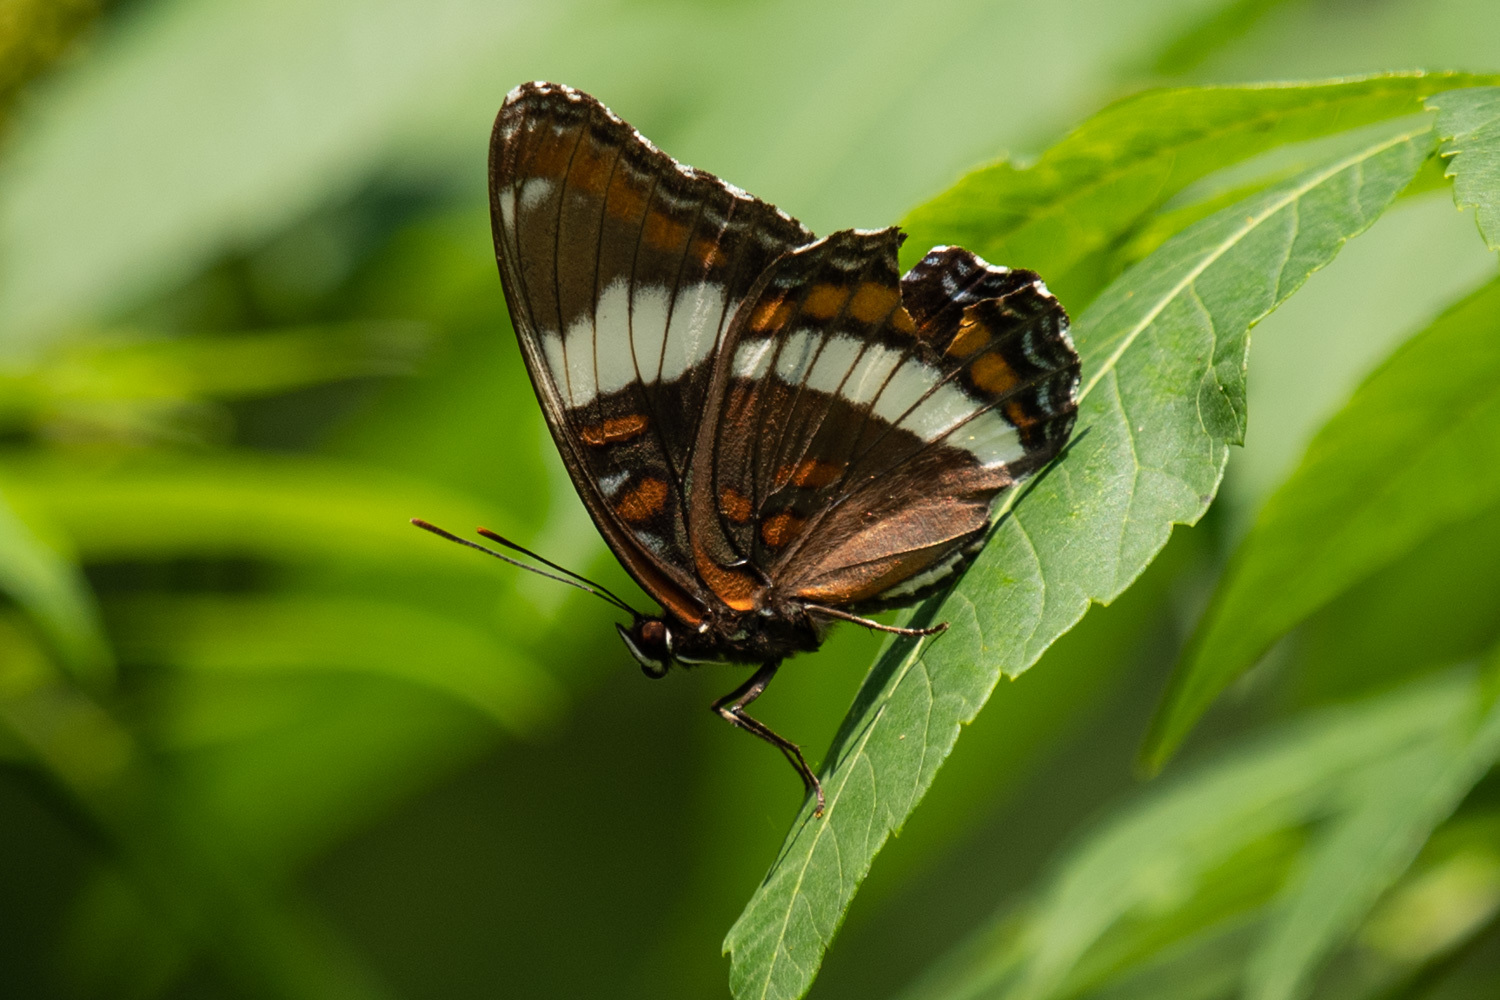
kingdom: Animalia
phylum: Arthropoda
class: Insecta
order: Lepidoptera
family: Nymphalidae
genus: Limenitis
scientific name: Limenitis arthemis
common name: Red-spotted admiral
